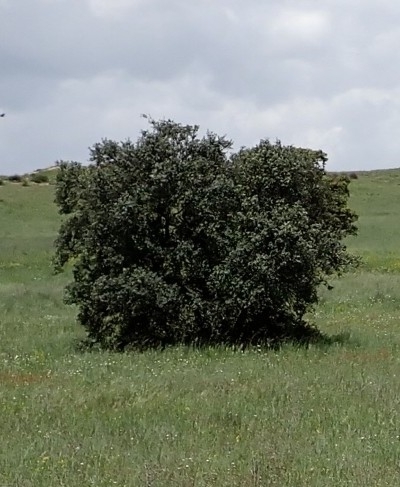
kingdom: Plantae
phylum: Tracheophyta
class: Magnoliopsida
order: Fagales
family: Fagaceae
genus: Quercus
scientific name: Quercus rotundifolia
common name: Holm oak
